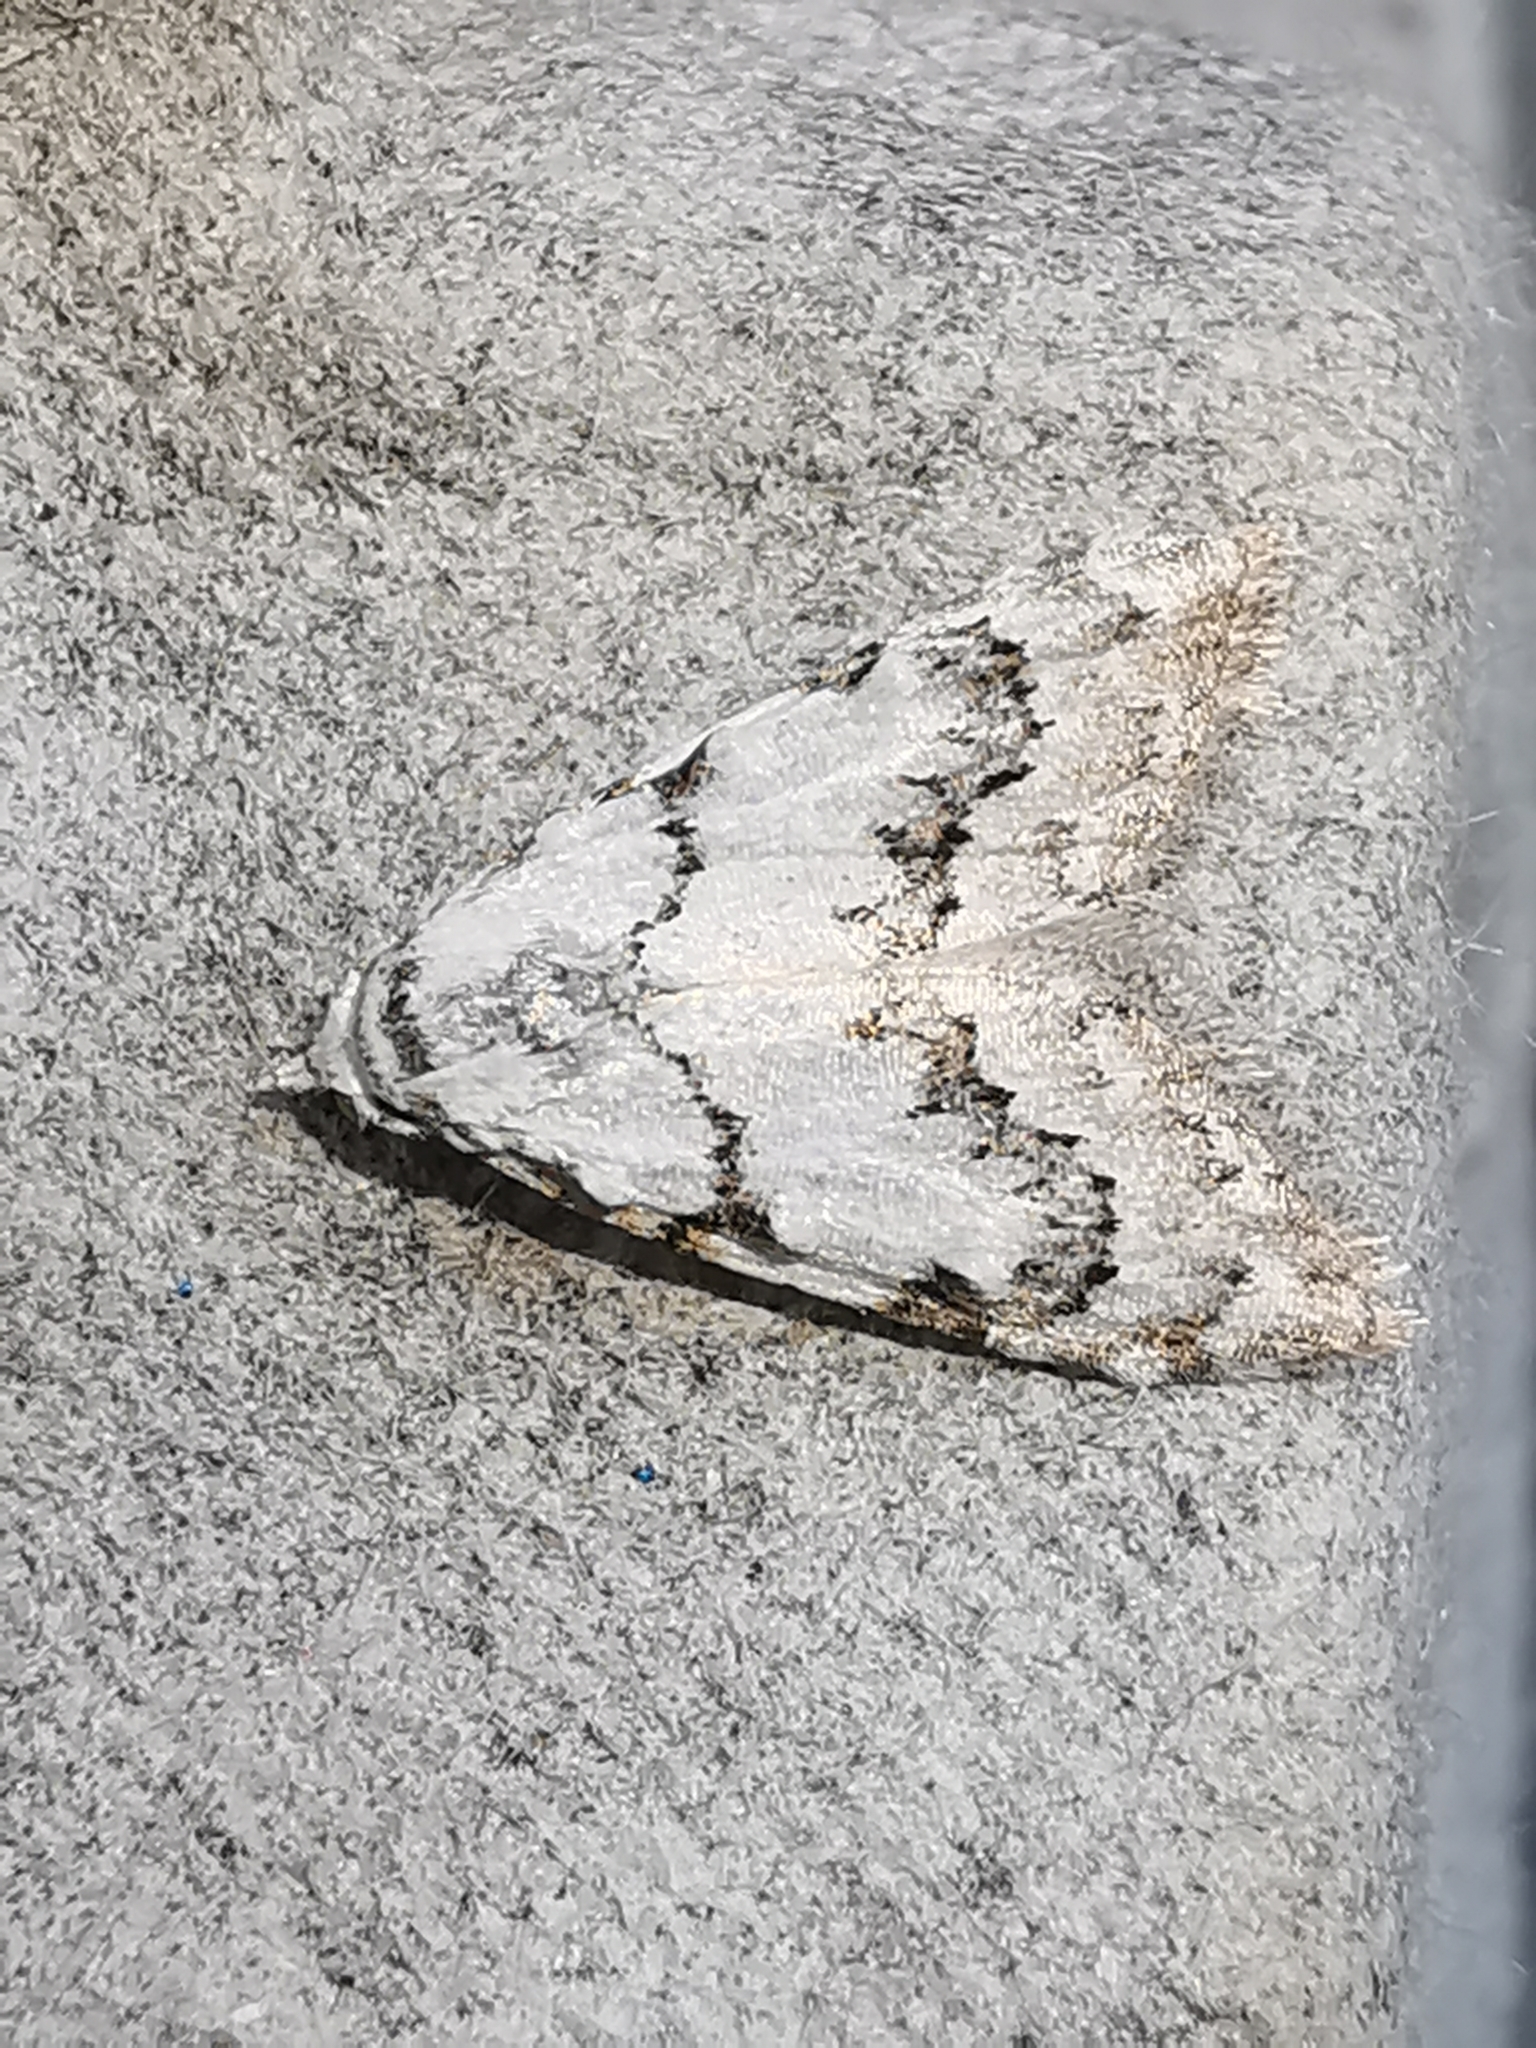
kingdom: Animalia
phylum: Arthropoda
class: Insecta
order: Lepidoptera
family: Nolidae
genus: Nola
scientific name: Nola confusalis
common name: Least black arches
